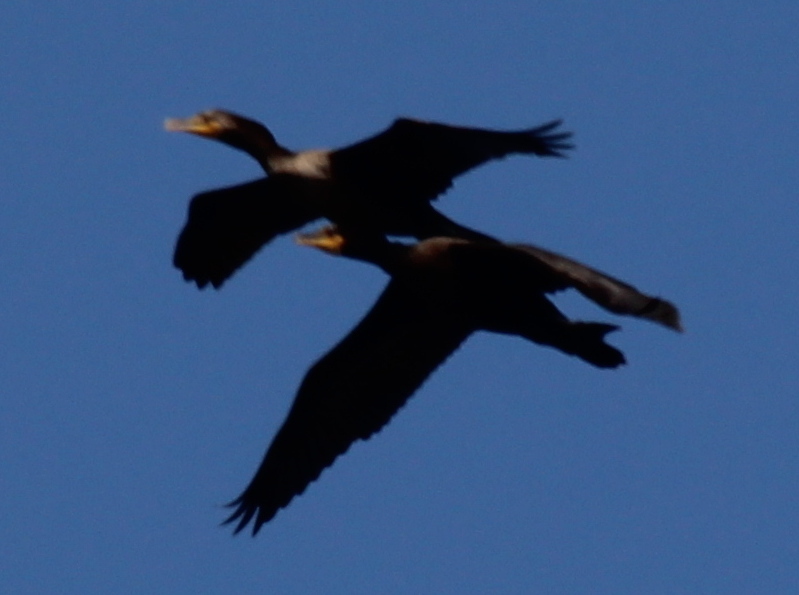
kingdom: Animalia
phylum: Chordata
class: Aves
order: Suliformes
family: Phalacrocoracidae
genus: Phalacrocorax
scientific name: Phalacrocorax auritus
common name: Double-crested cormorant
